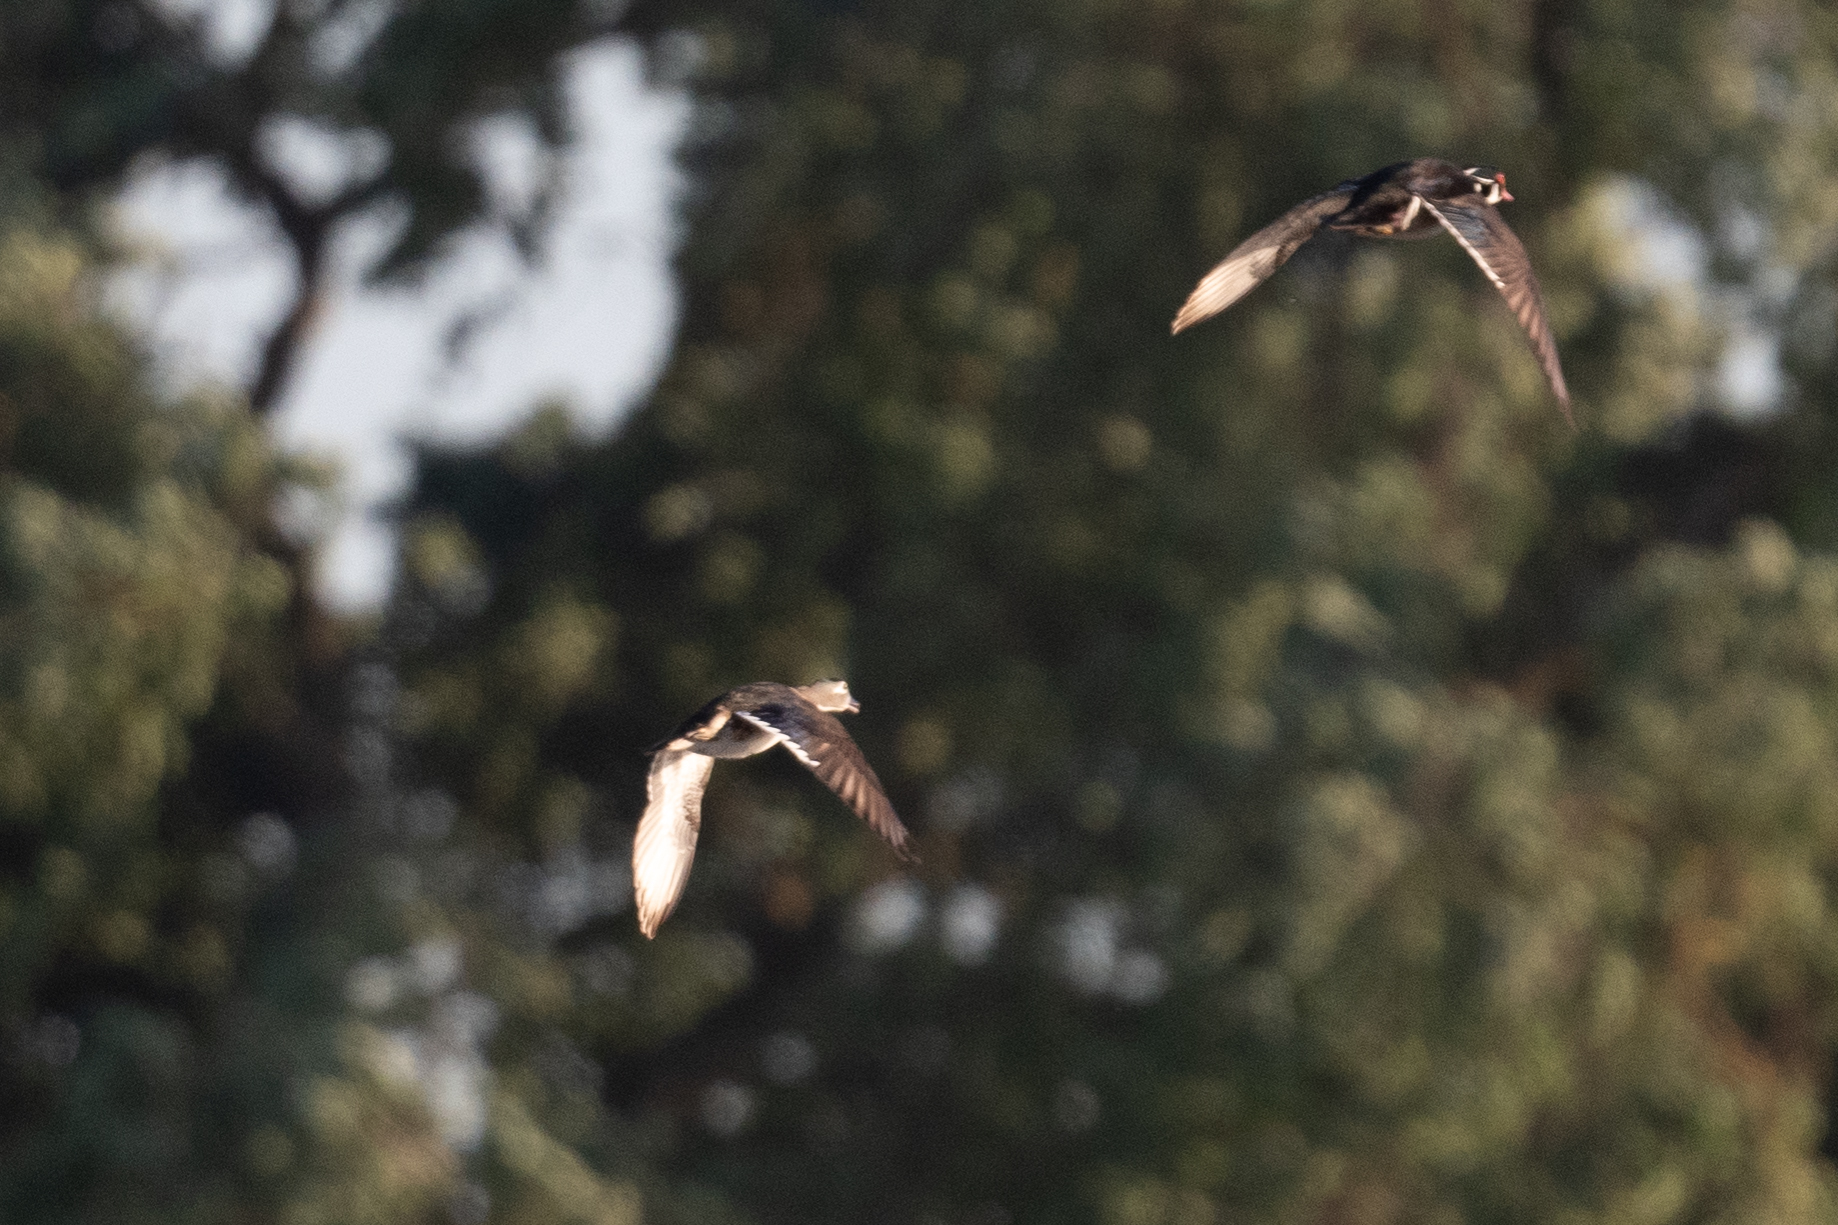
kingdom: Animalia
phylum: Chordata
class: Aves
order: Anseriformes
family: Anatidae
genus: Aix
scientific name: Aix sponsa
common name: Wood duck
